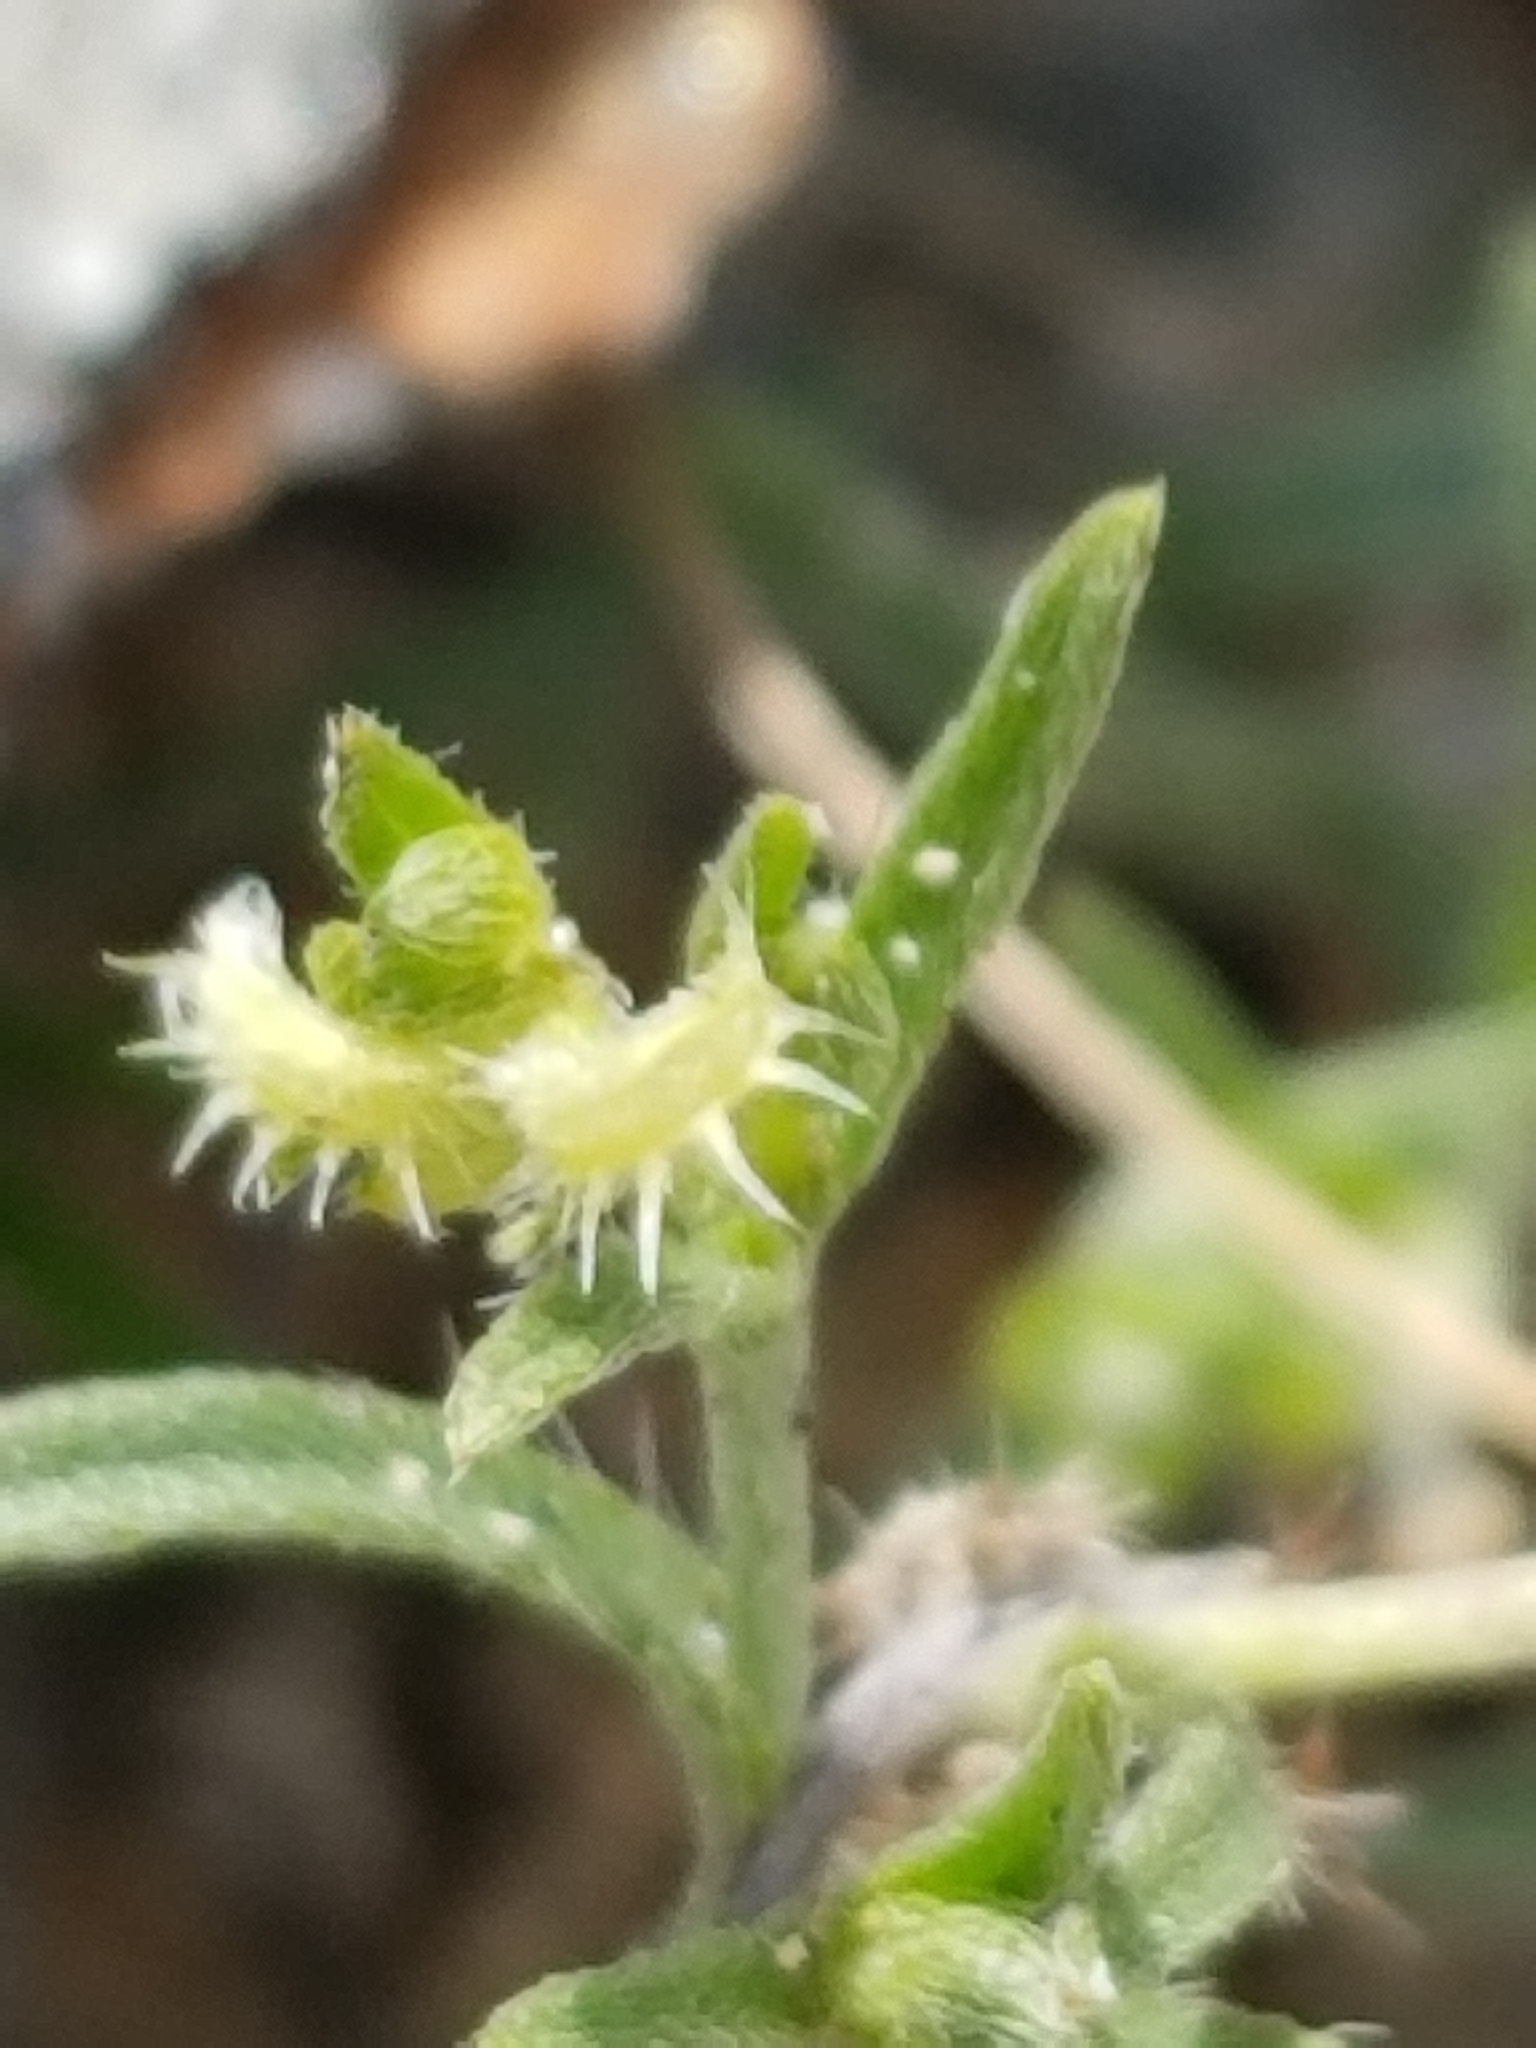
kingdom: Plantae
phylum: Tracheophyta
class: Magnoliopsida
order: Boraginales
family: Boraginaceae
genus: Pectocarya
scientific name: Pectocarya recurvata
